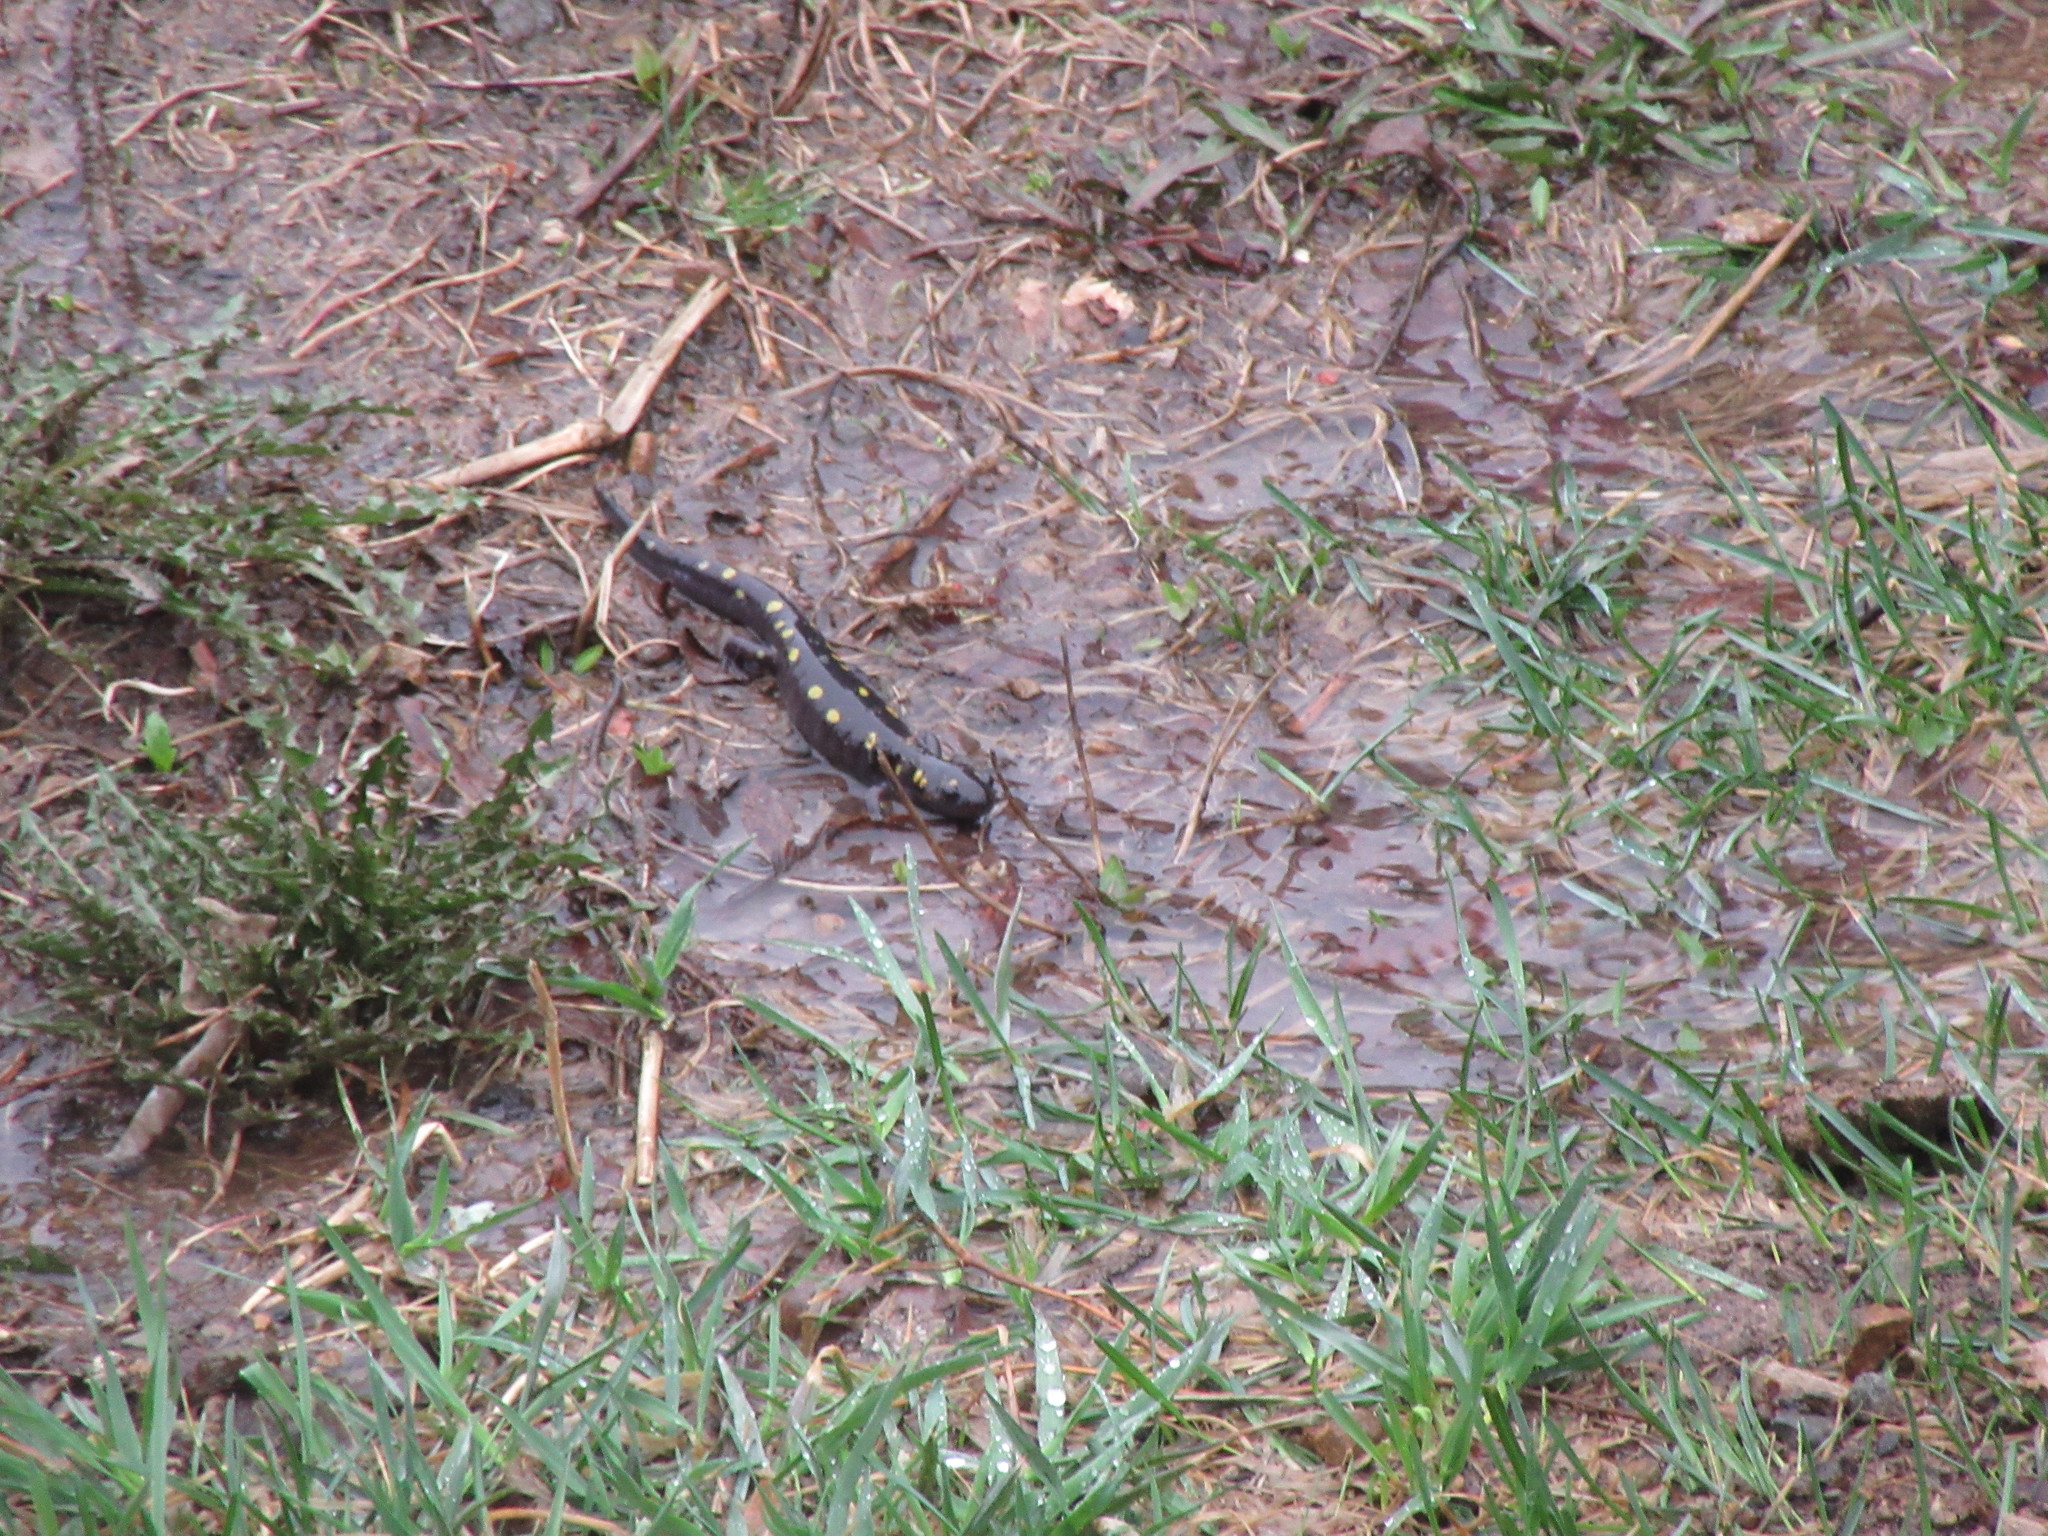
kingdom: Animalia
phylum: Chordata
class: Amphibia
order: Caudata
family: Ambystomatidae
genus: Ambystoma
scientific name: Ambystoma maculatum
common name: Spotted salamander
